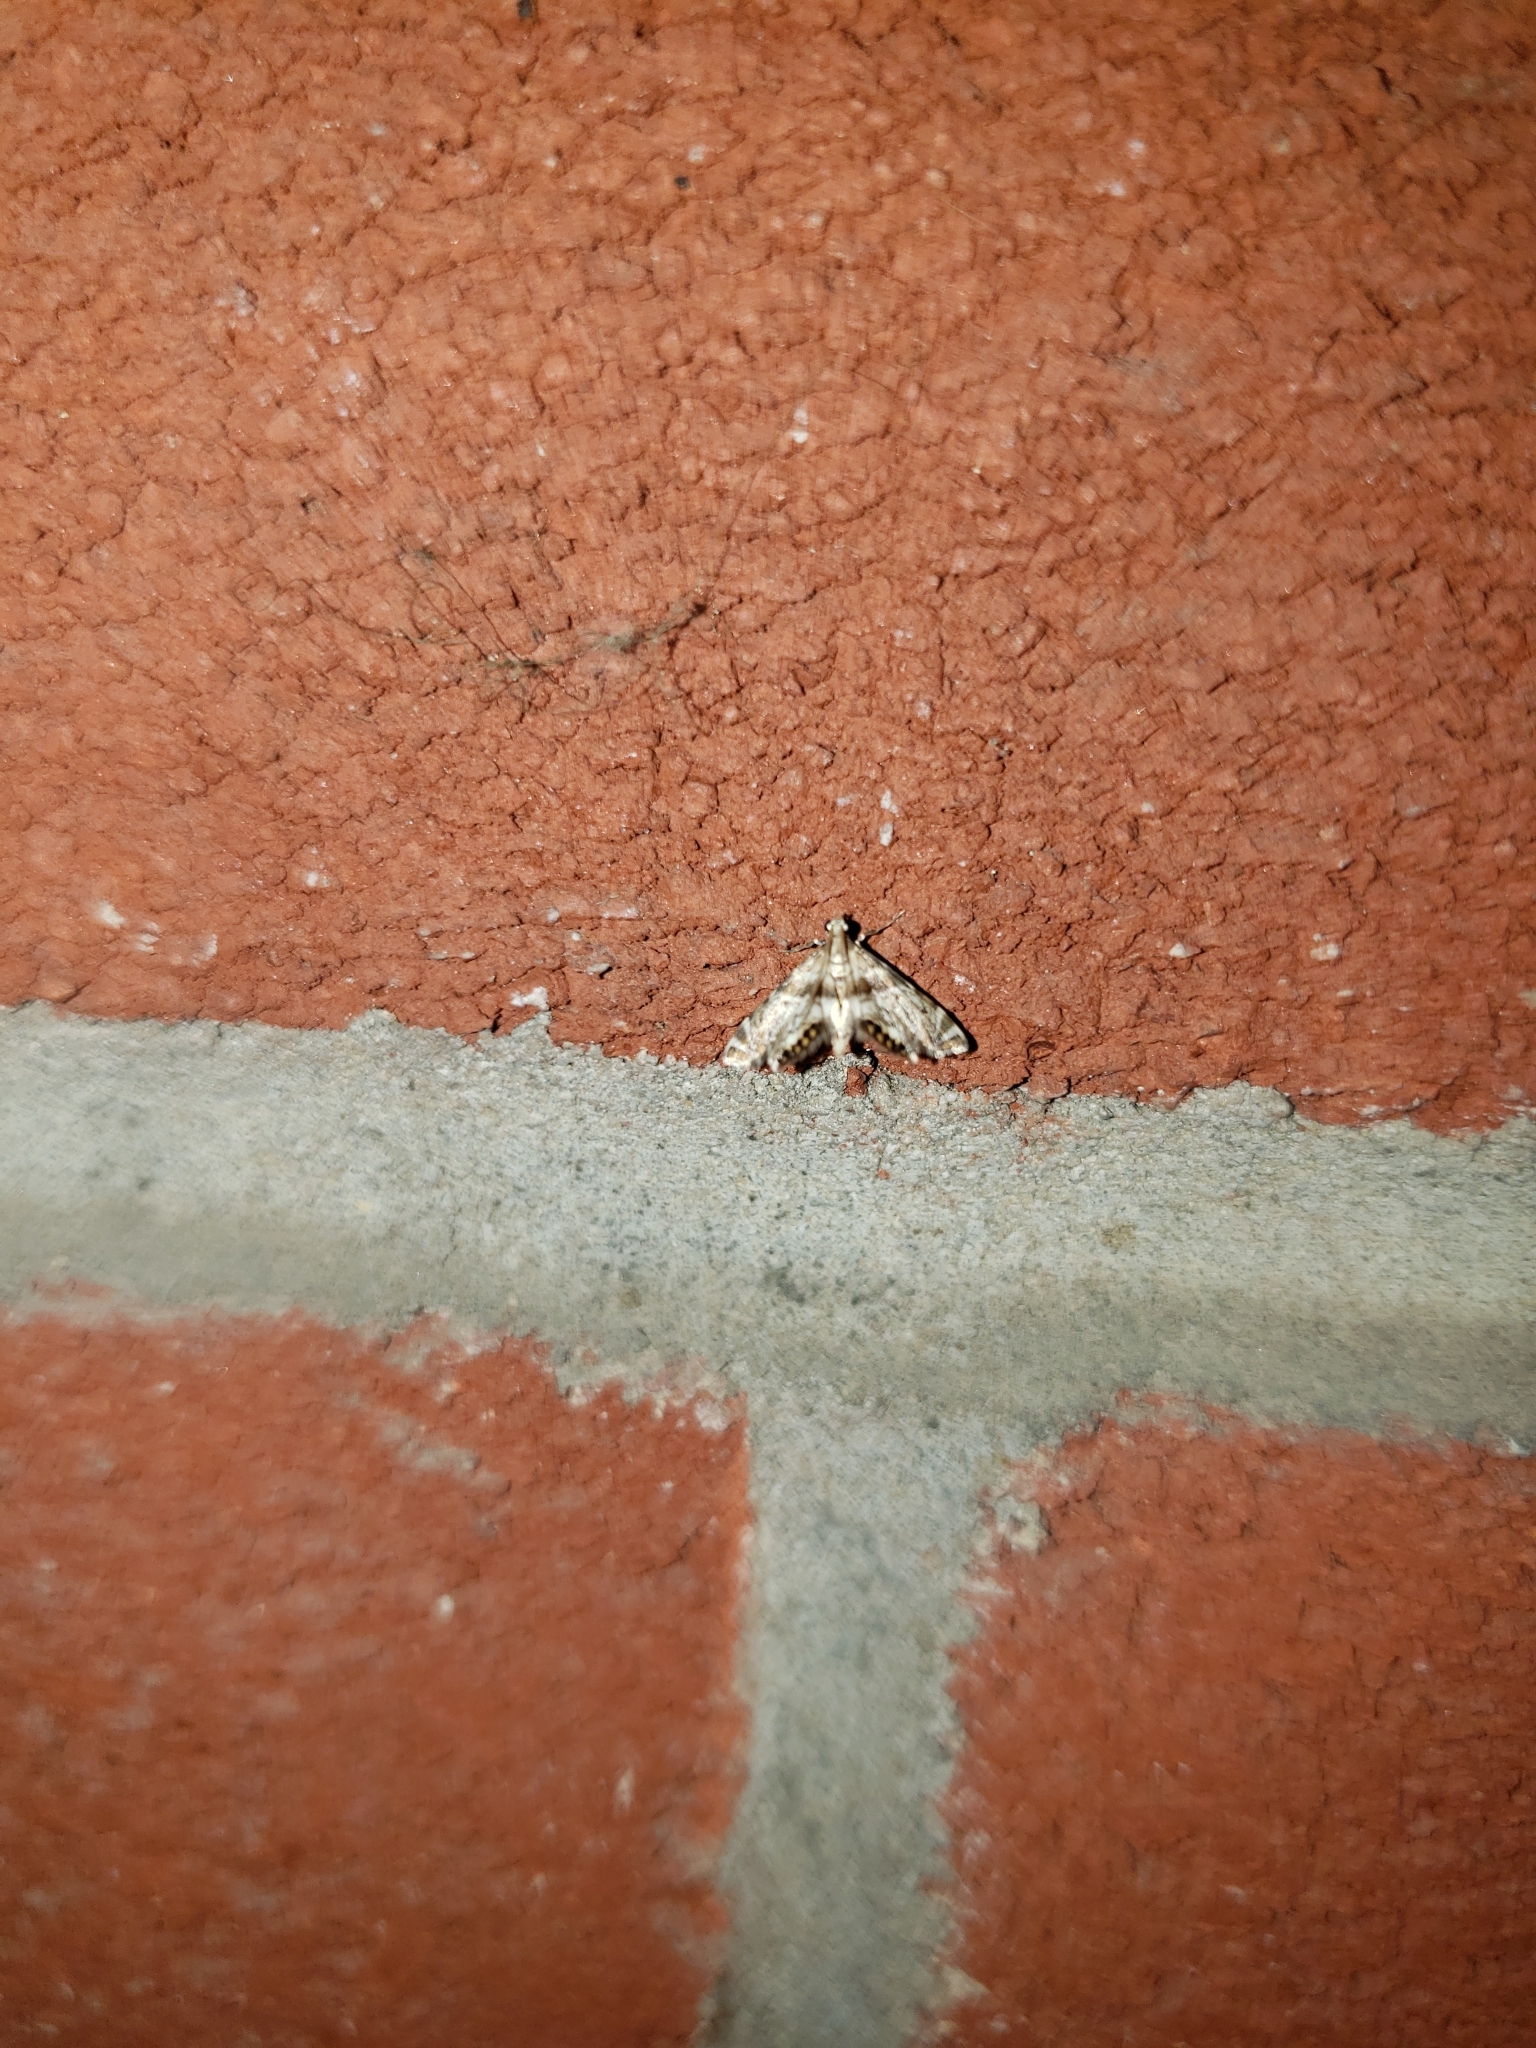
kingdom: Animalia
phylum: Arthropoda
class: Insecta
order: Lepidoptera
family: Crambidae
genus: Petrophila
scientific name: Petrophila fulicalis
